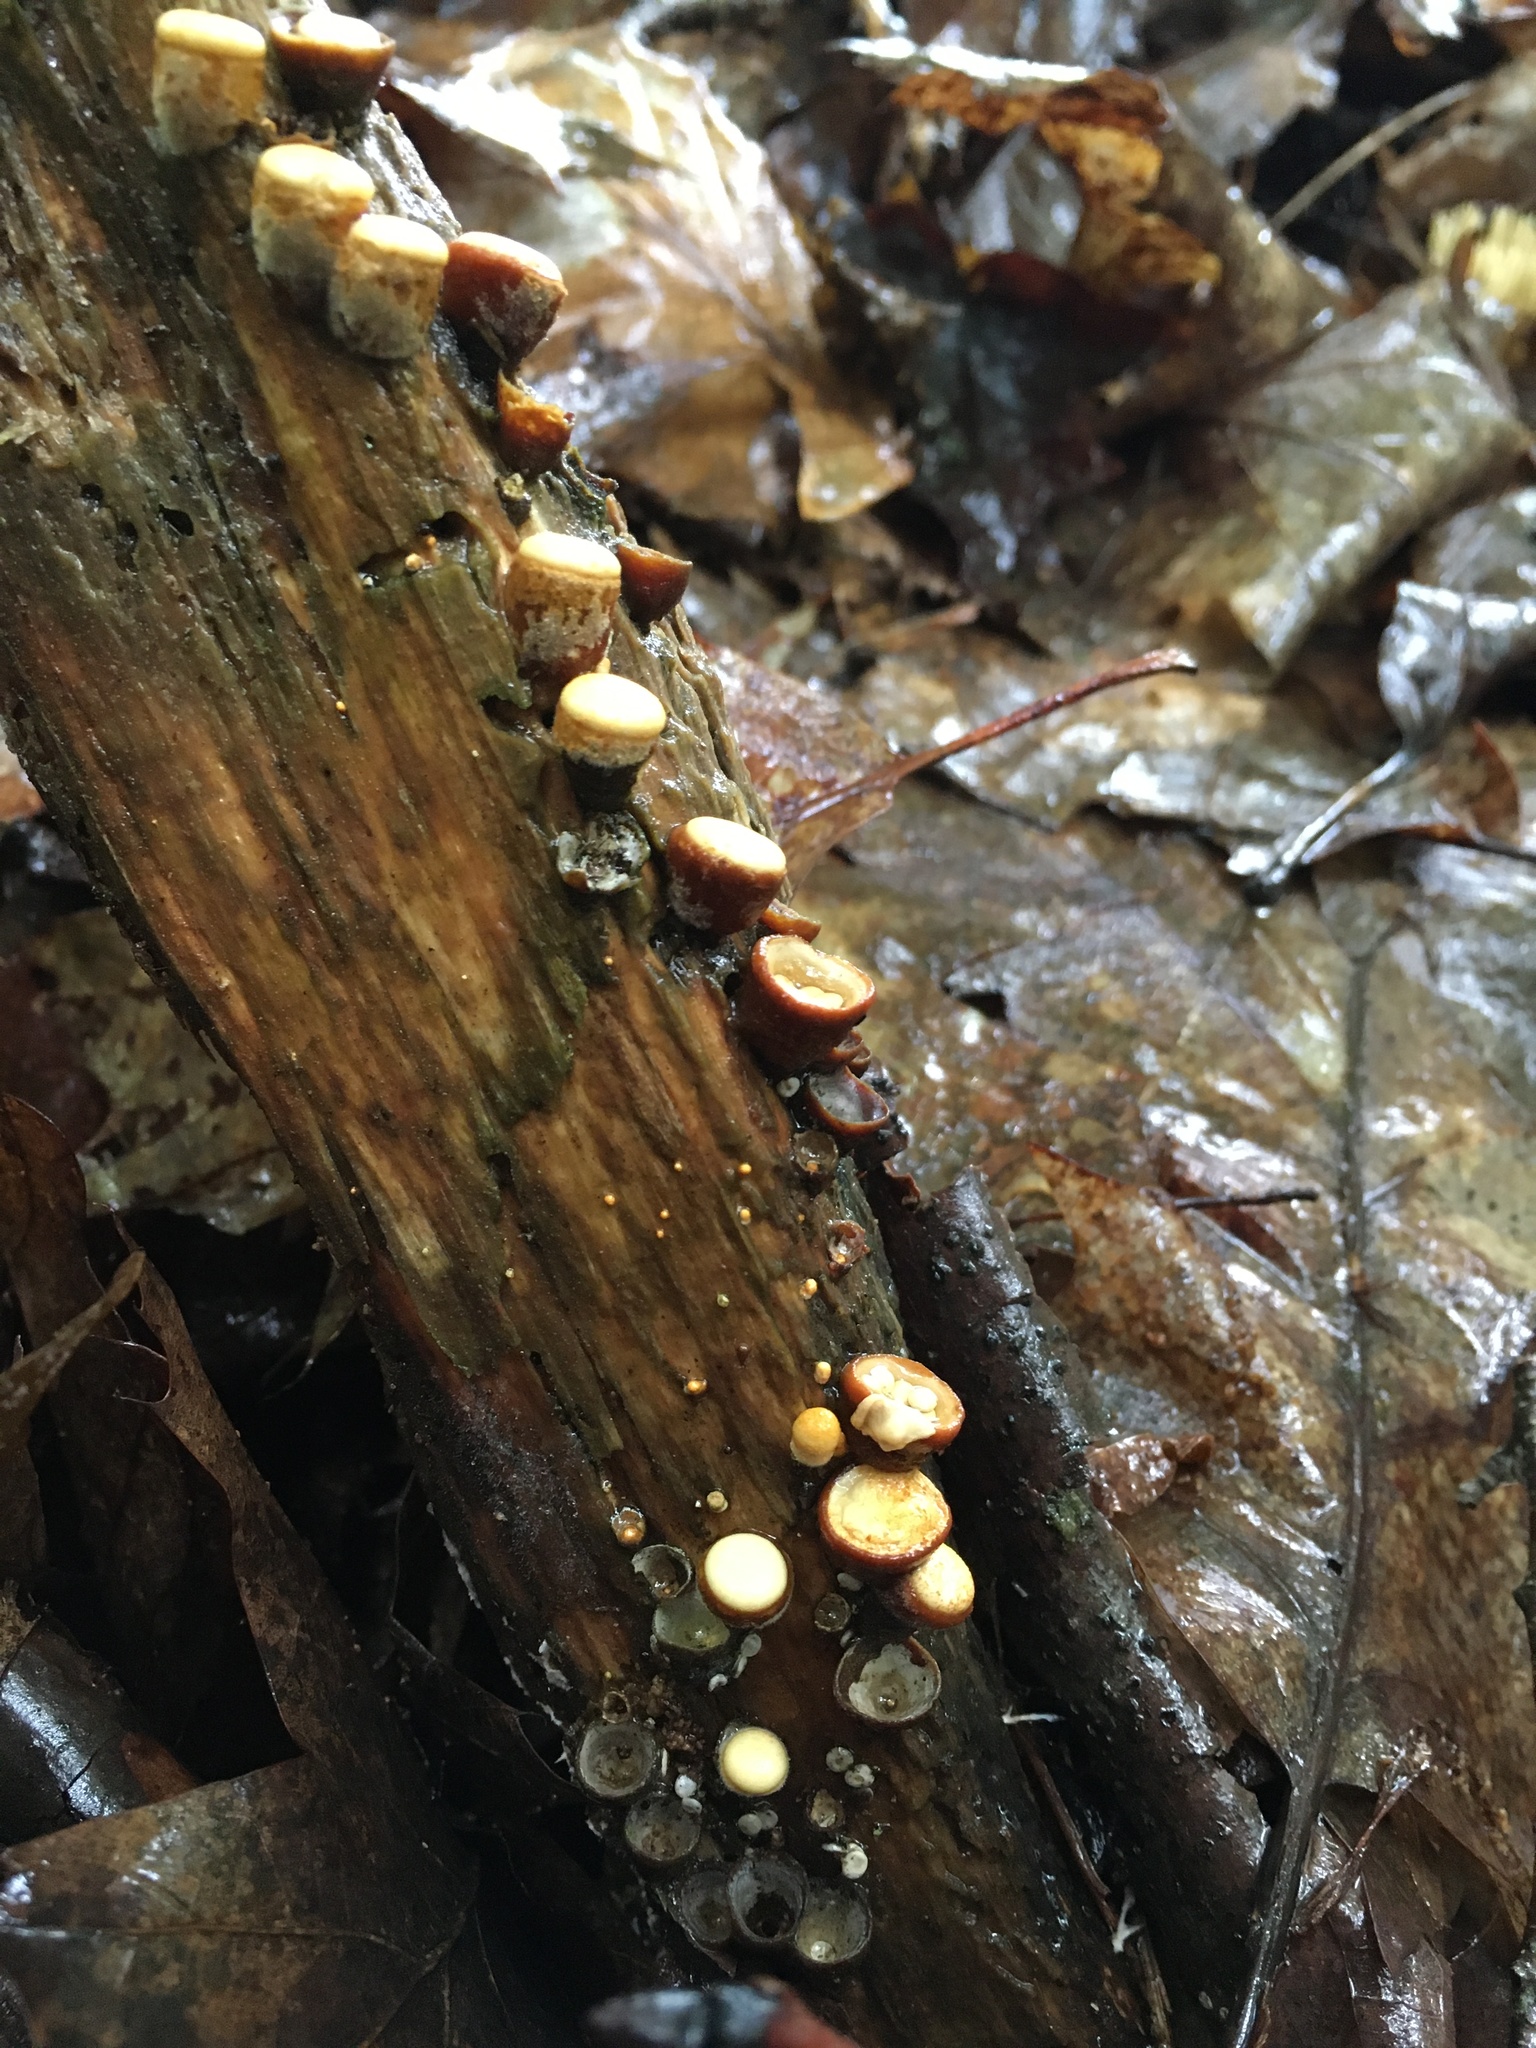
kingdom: Fungi
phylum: Basidiomycota
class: Agaricomycetes
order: Agaricales
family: Nidulariaceae
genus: Crucibulum
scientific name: Crucibulum laeve
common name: Common bird's nest
